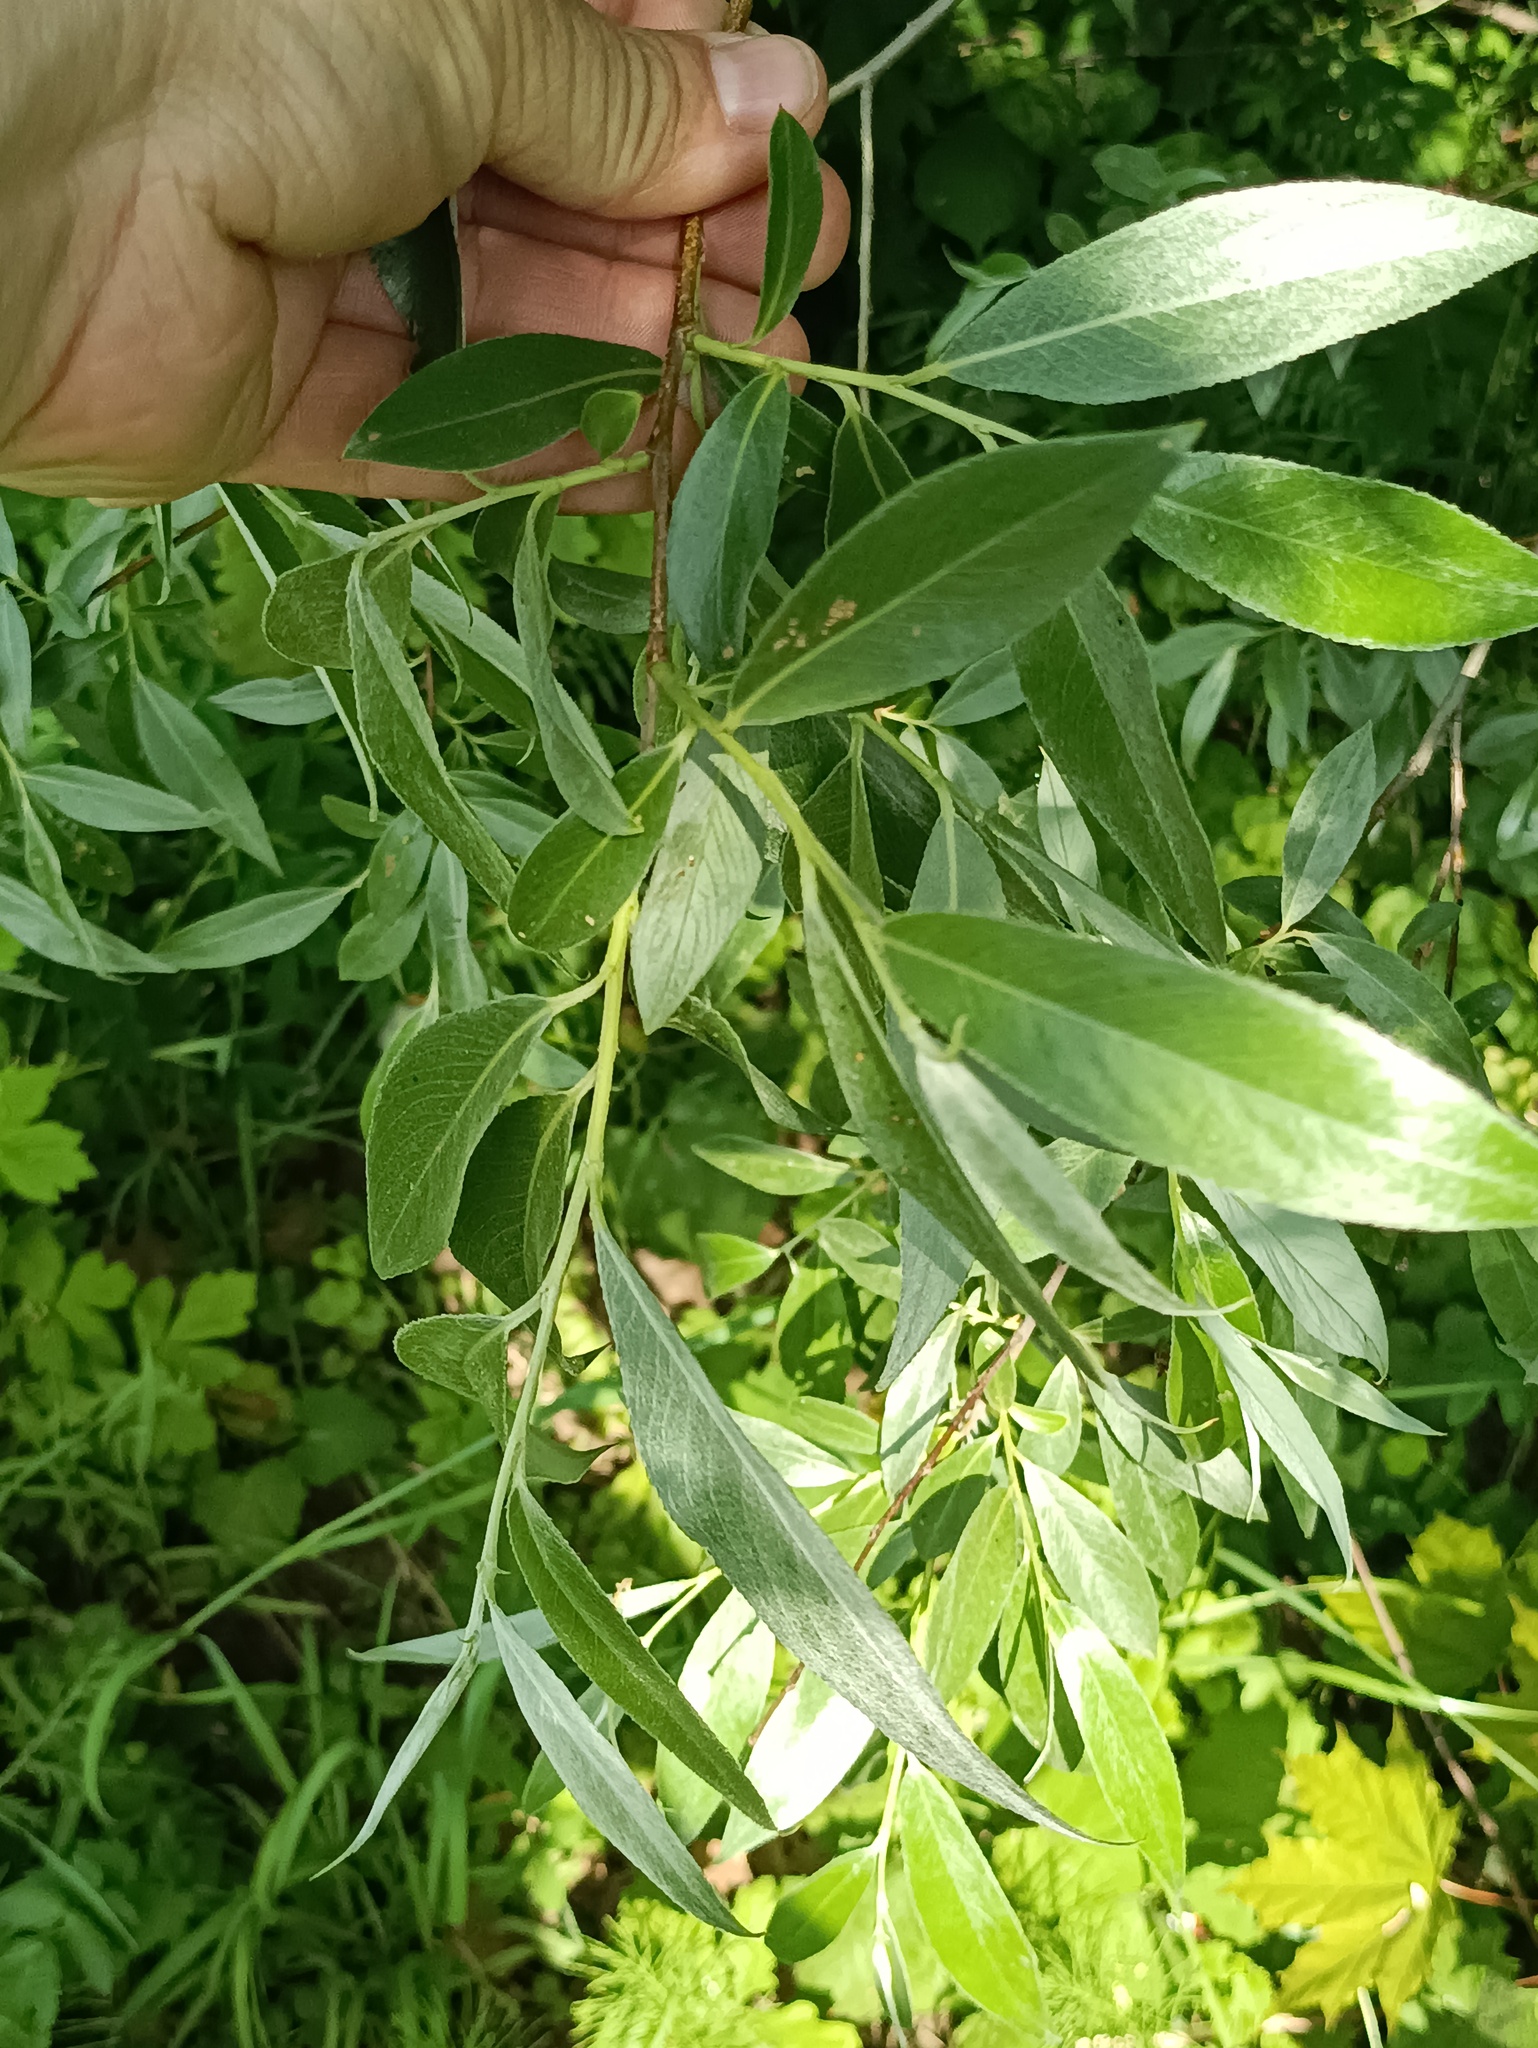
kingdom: Plantae
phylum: Tracheophyta
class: Magnoliopsida
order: Malpighiales
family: Salicaceae
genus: Salix
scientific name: Salix alba
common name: White willow
